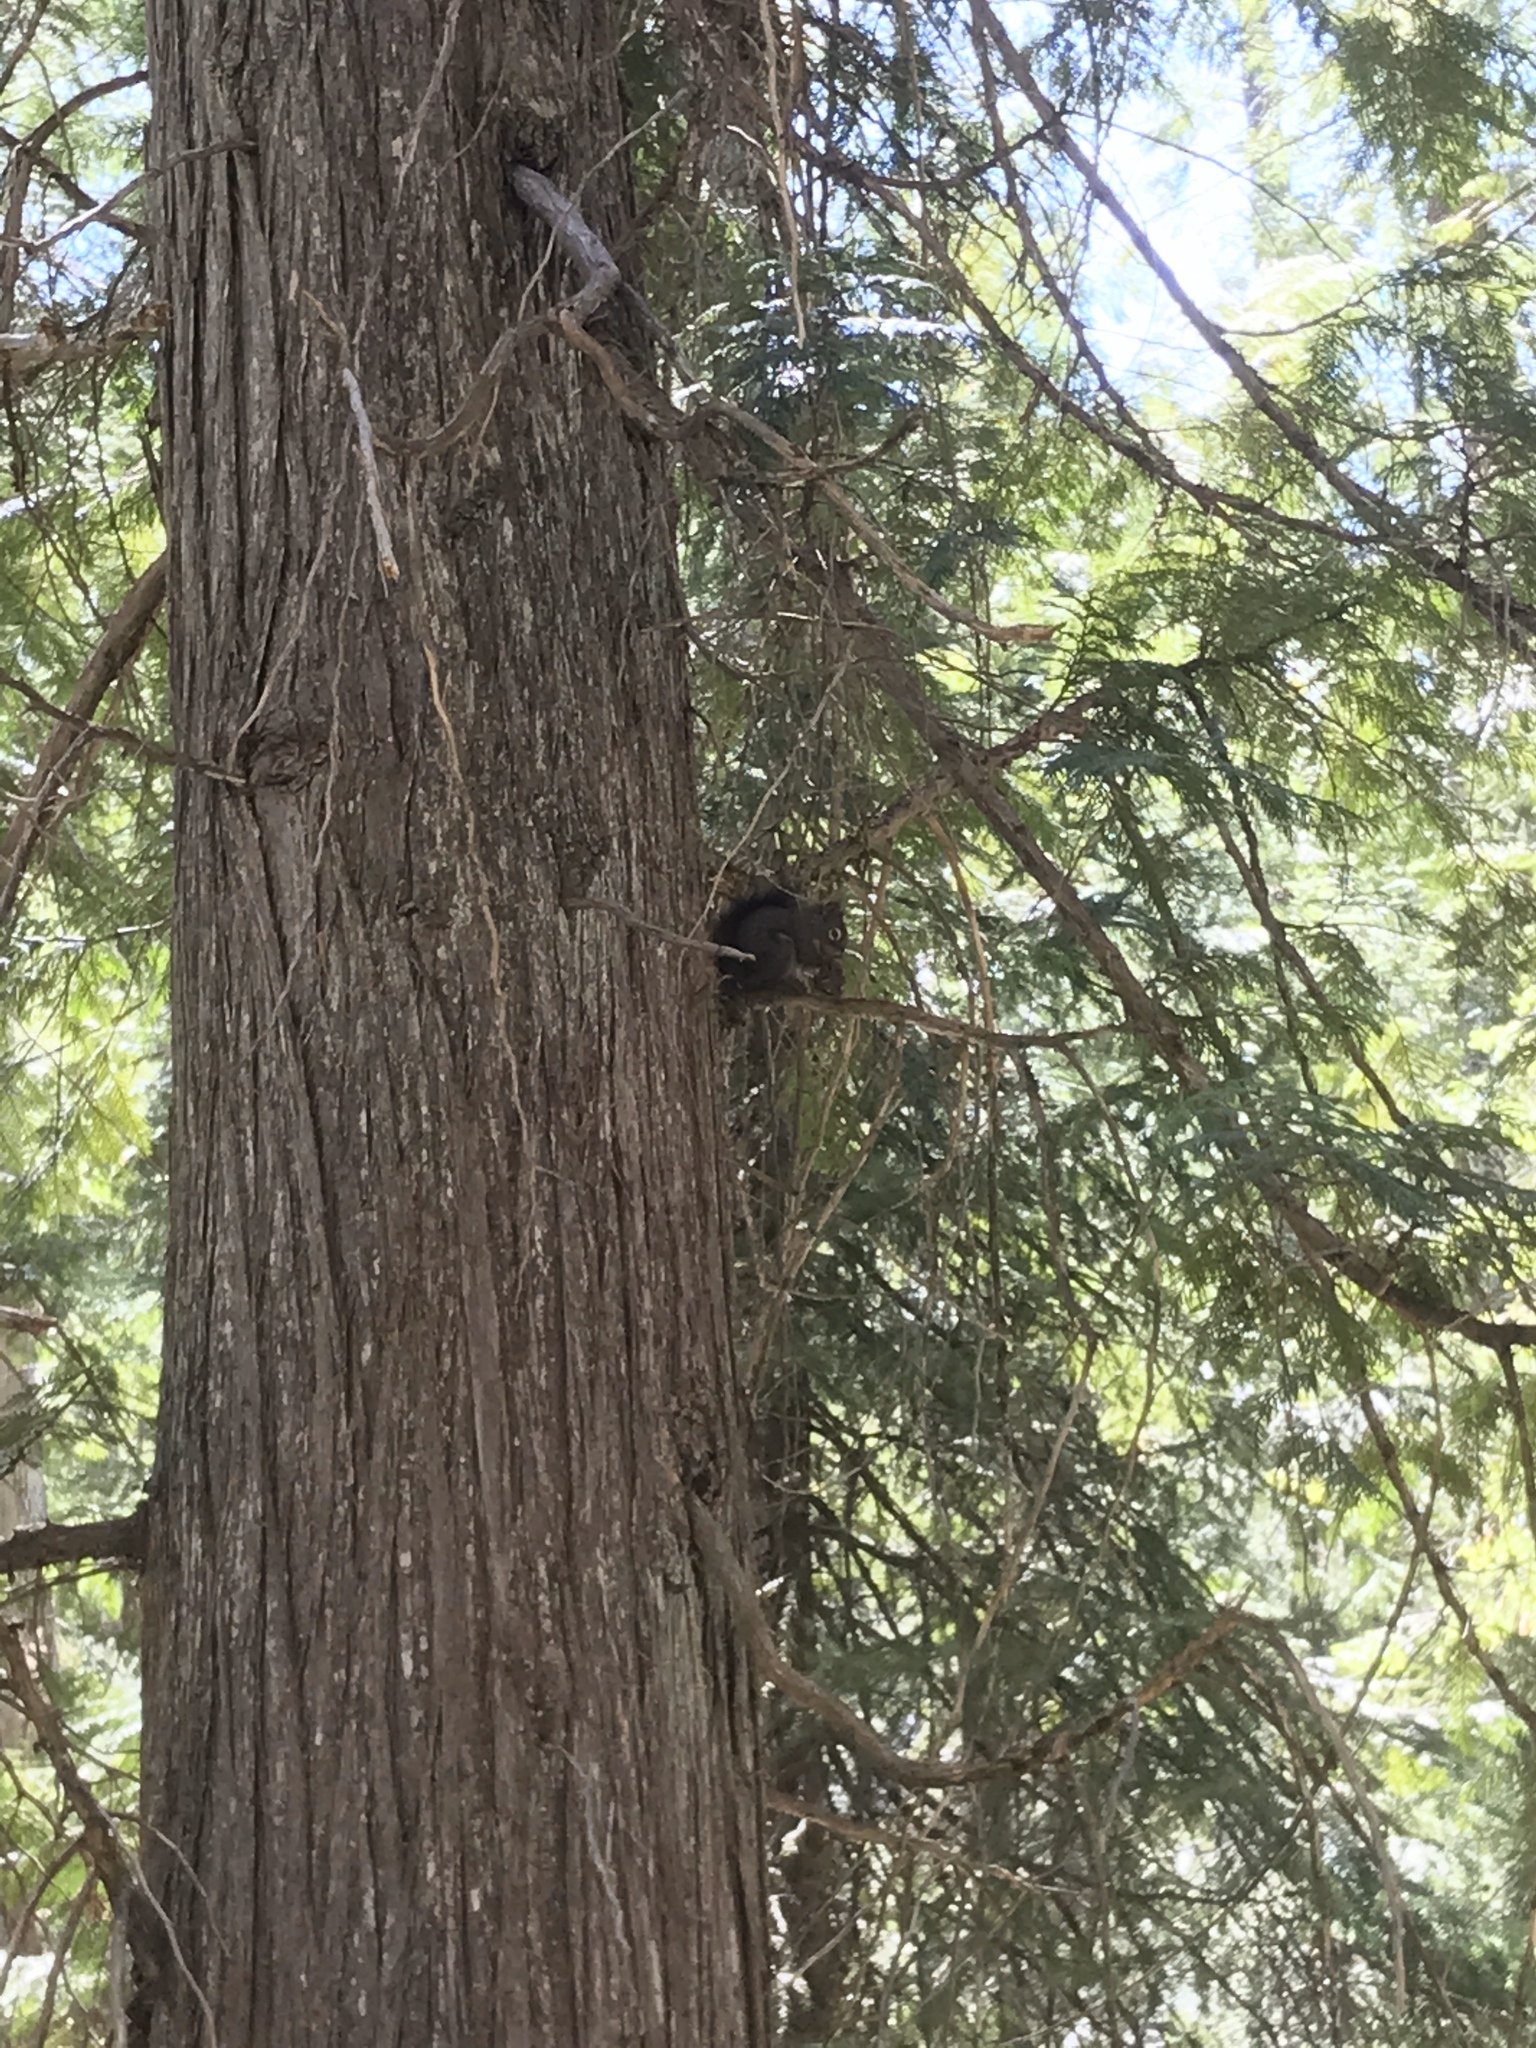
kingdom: Animalia
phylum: Chordata
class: Mammalia
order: Rodentia
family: Sciuridae
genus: Tamiasciurus
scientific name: Tamiasciurus hudsonicus
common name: Red squirrel
